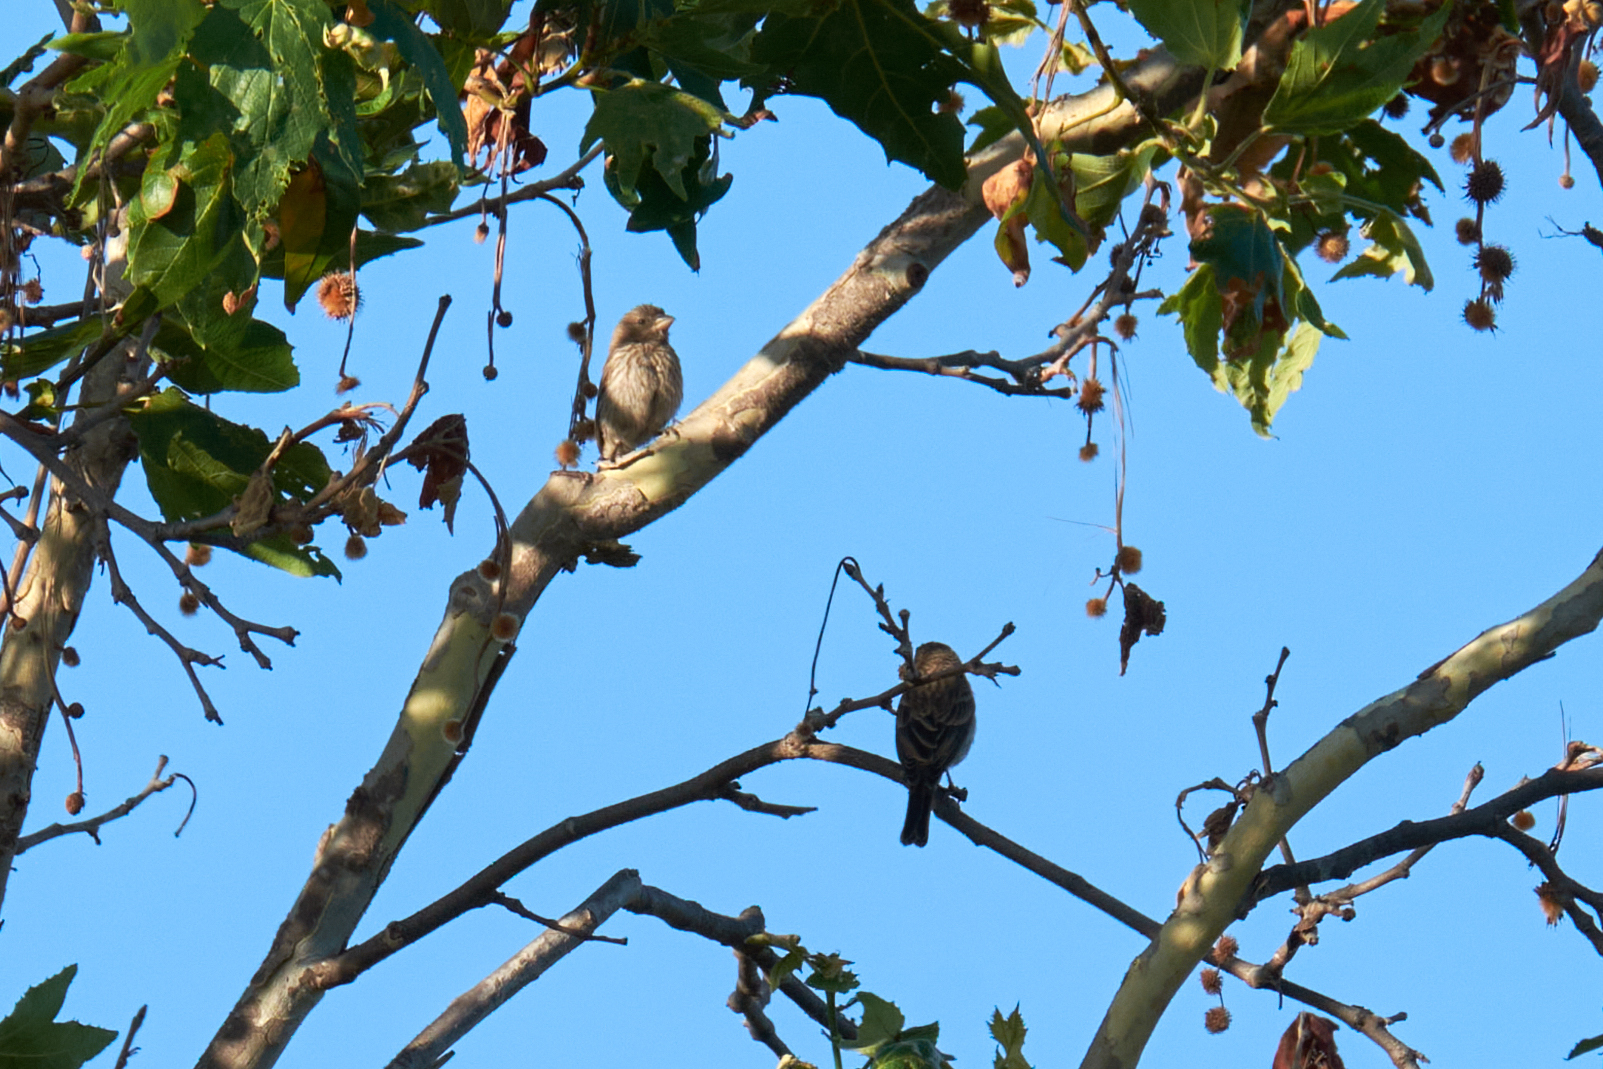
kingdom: Animalia
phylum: Chordata
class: Aves
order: Passeriformes
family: Fringillidae
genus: Haemorhous
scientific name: Haemorhous mexicanus
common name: House finch
